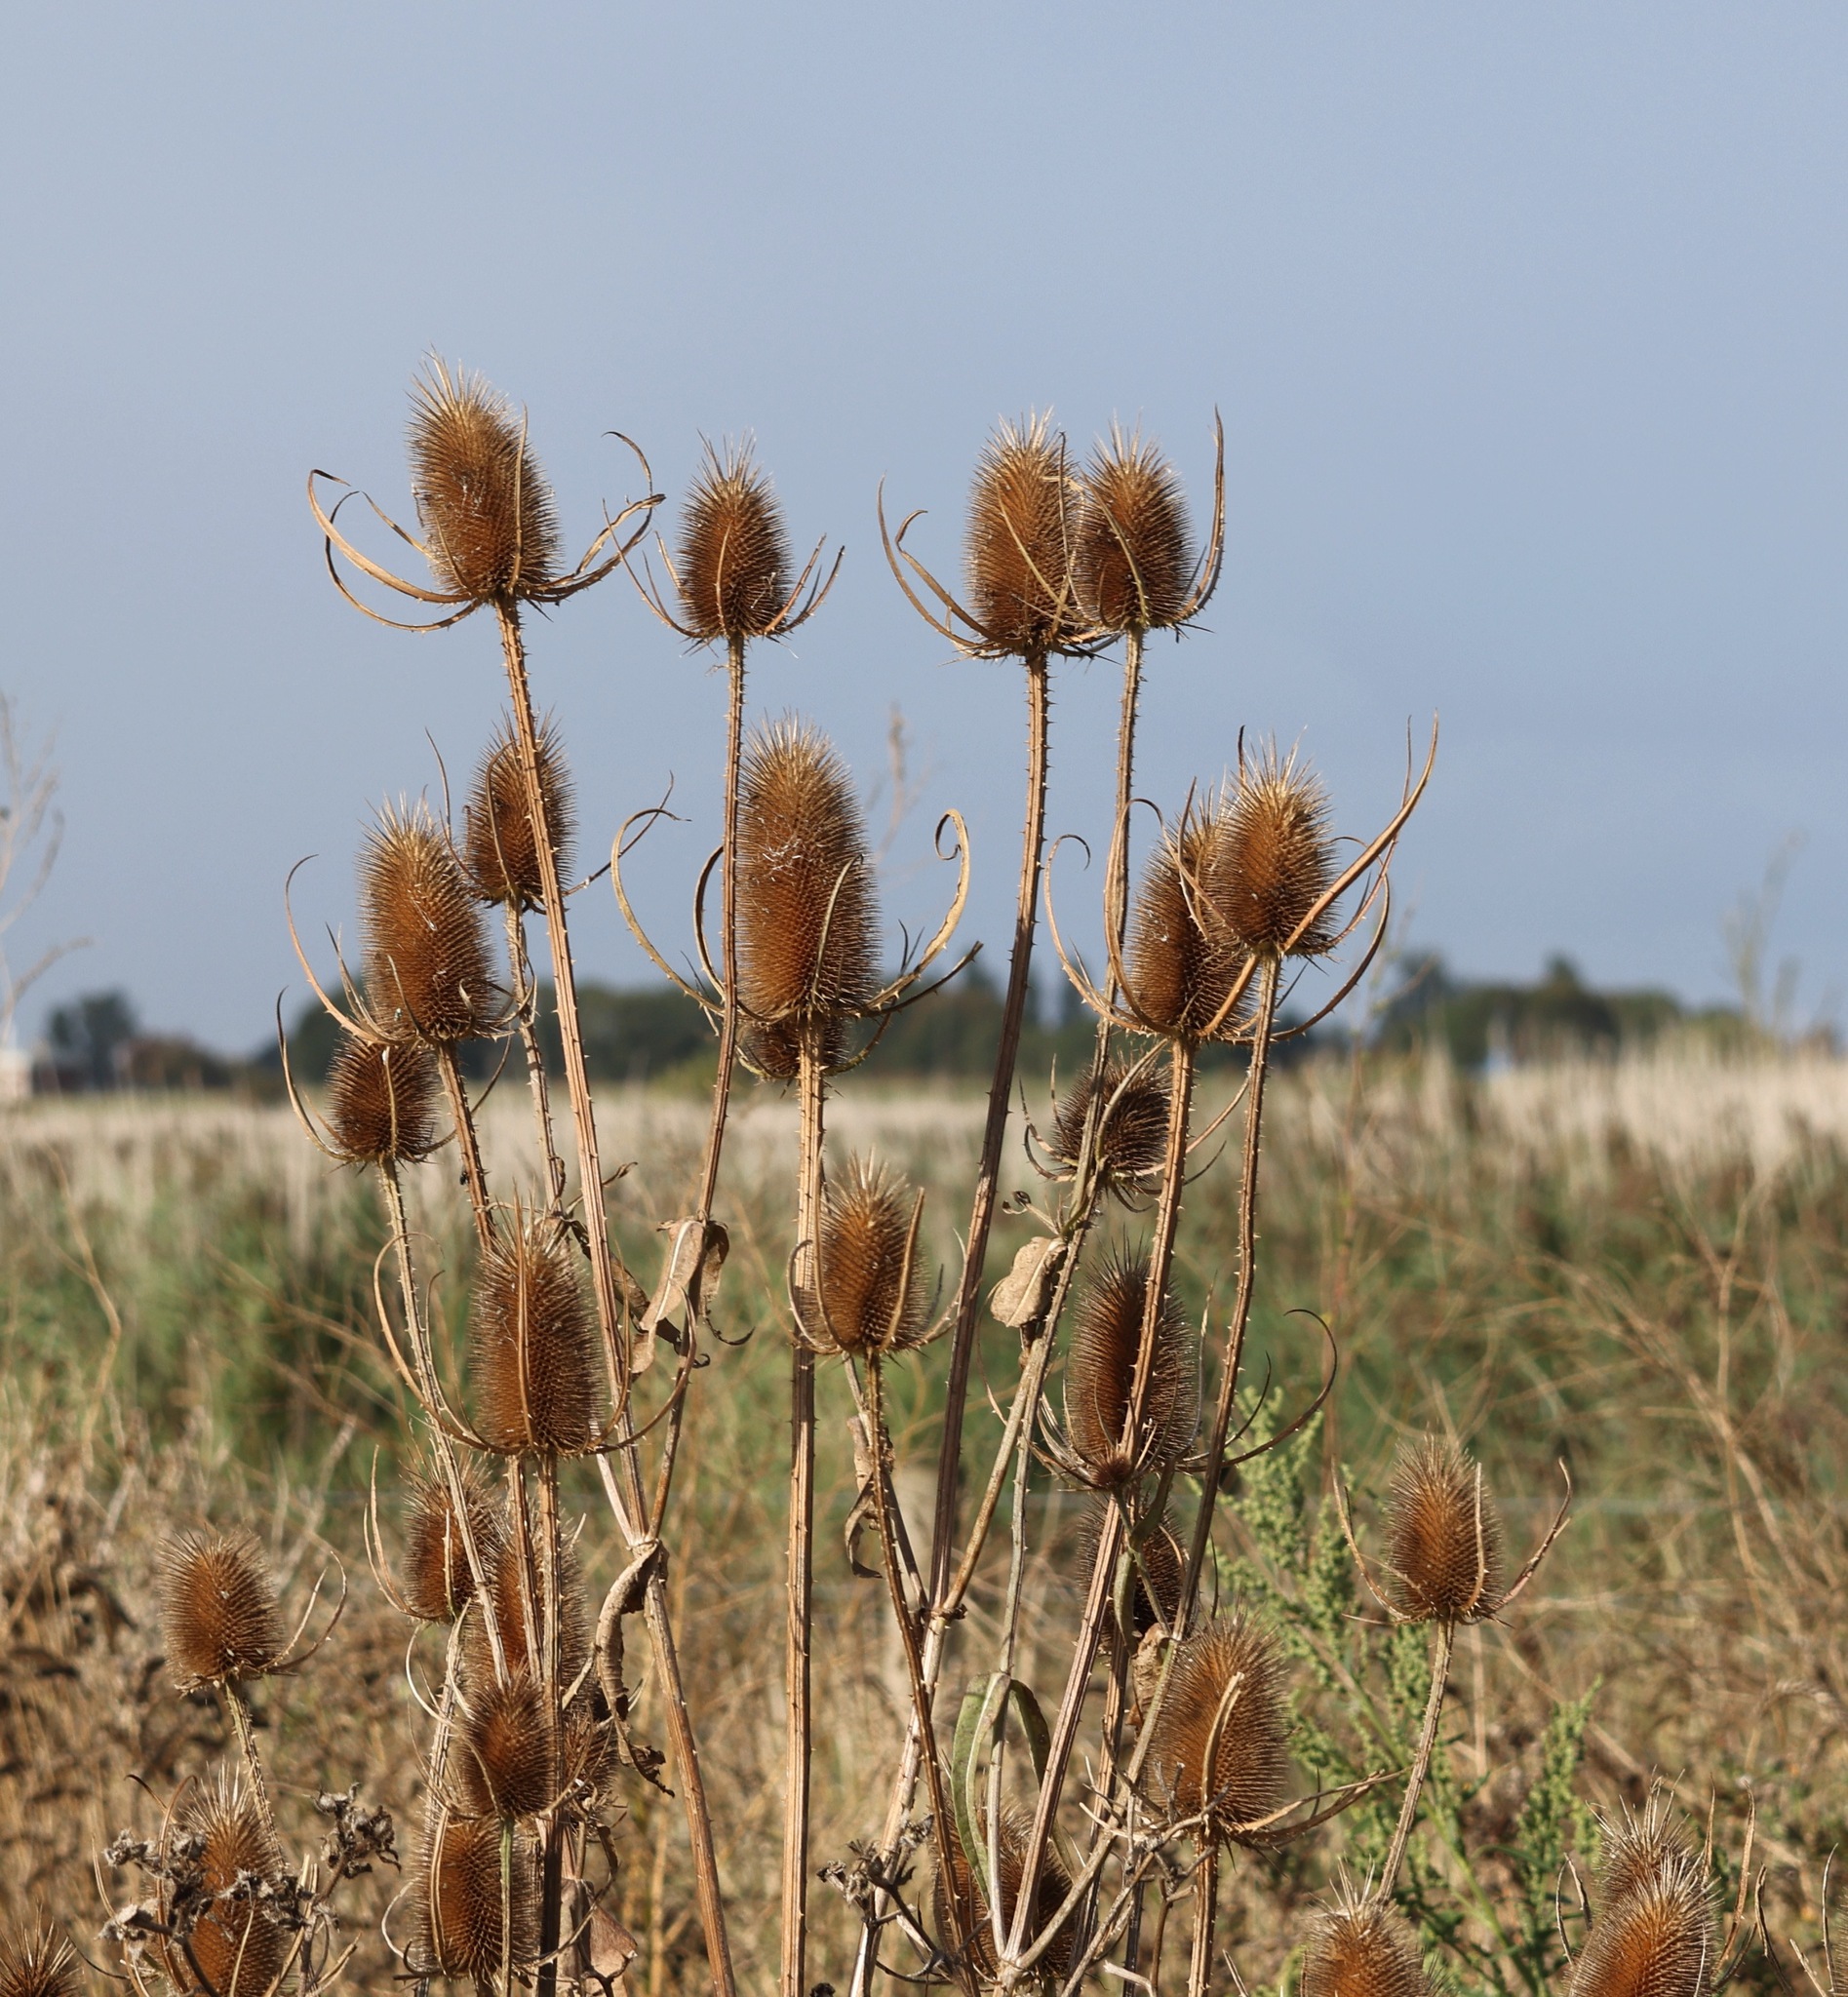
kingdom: Plantae
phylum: Tracheophyta
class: Magnoliopsida
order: Dipsacales
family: Caprifoliaceae
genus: Dipsacus
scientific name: Dipsacus fullonum
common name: Teasel
